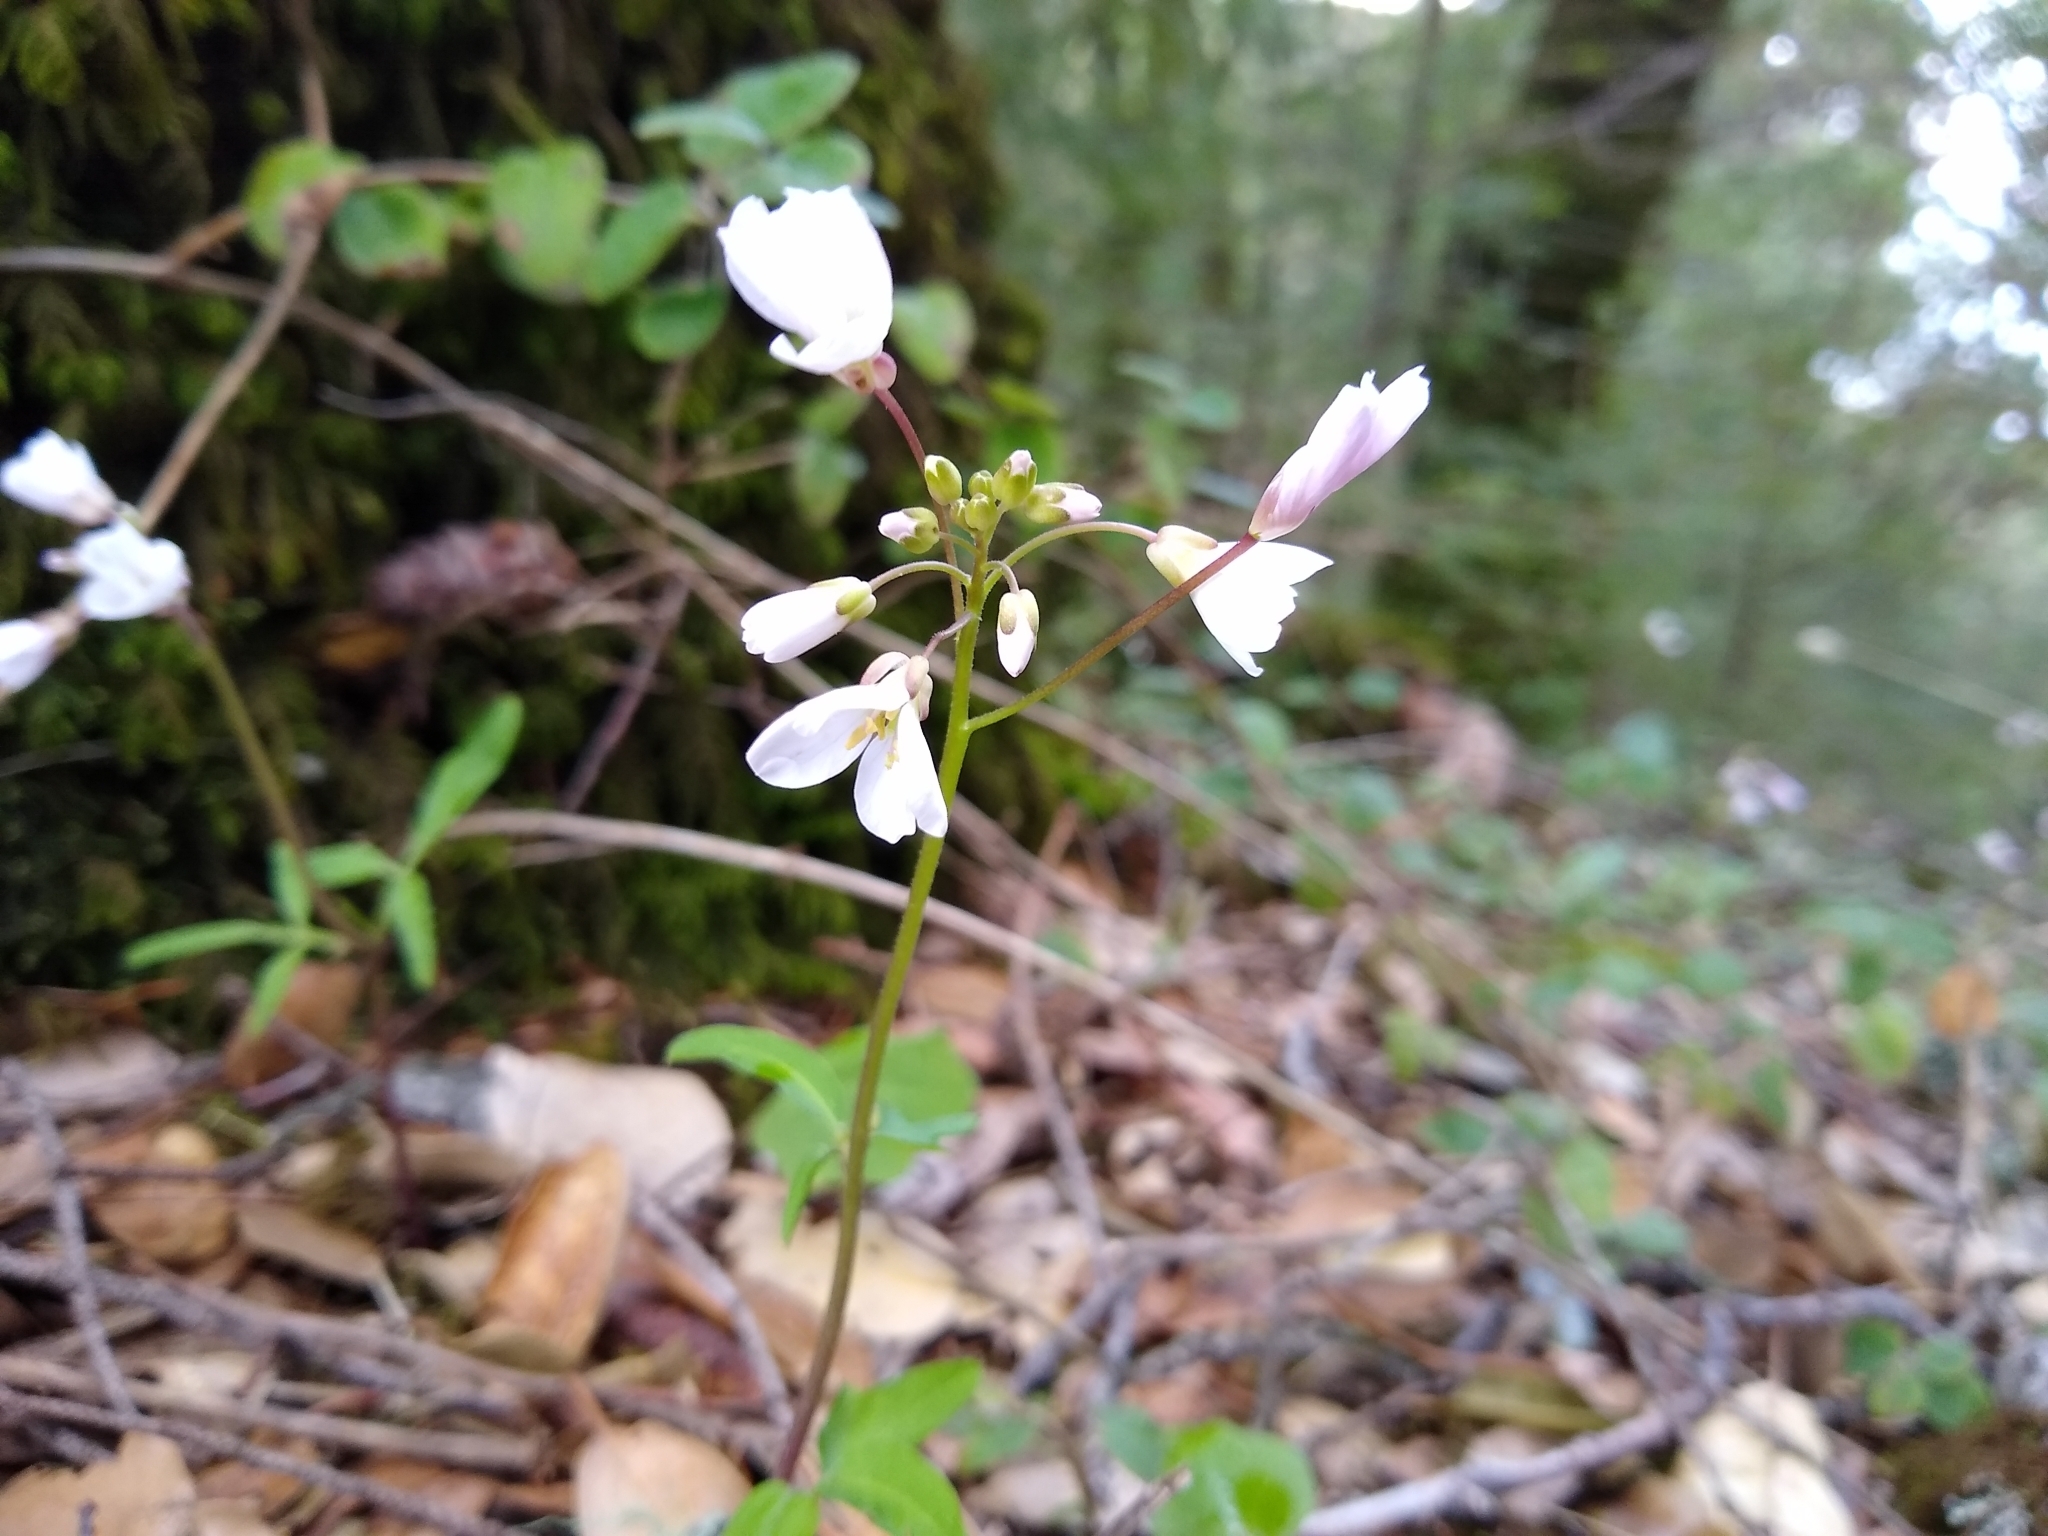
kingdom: Plantae
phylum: Tracheophyta
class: Magnoliopsida
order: Brassicales
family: Brassicaceae
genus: Cardamine
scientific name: Cardamine californica
